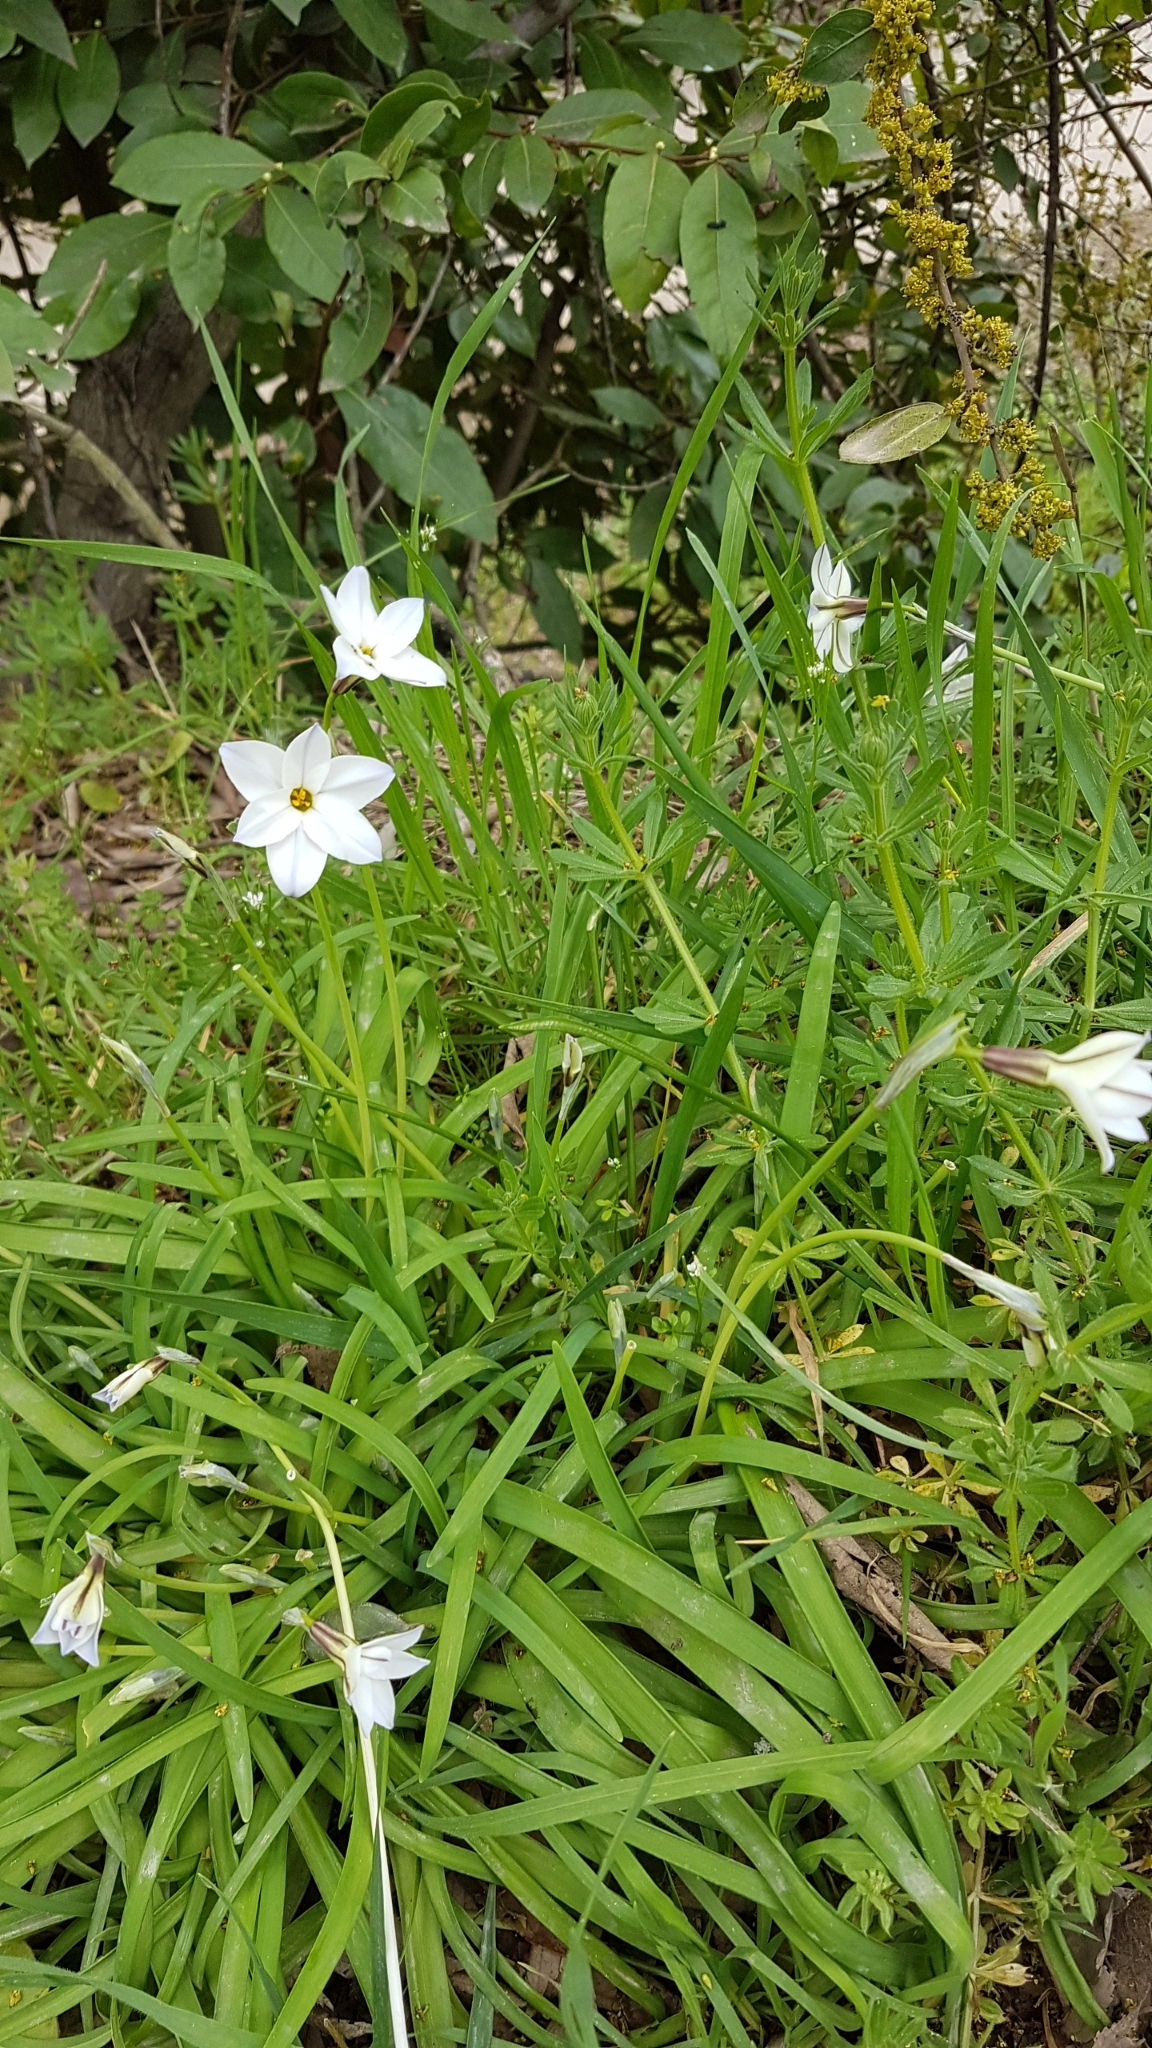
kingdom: Plantae
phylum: Tracheophyta
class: Liliopsida
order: Asparagales
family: Amaryllidaceae
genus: Ipheion
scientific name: Ipheion uniflorum
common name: Spring starflower
